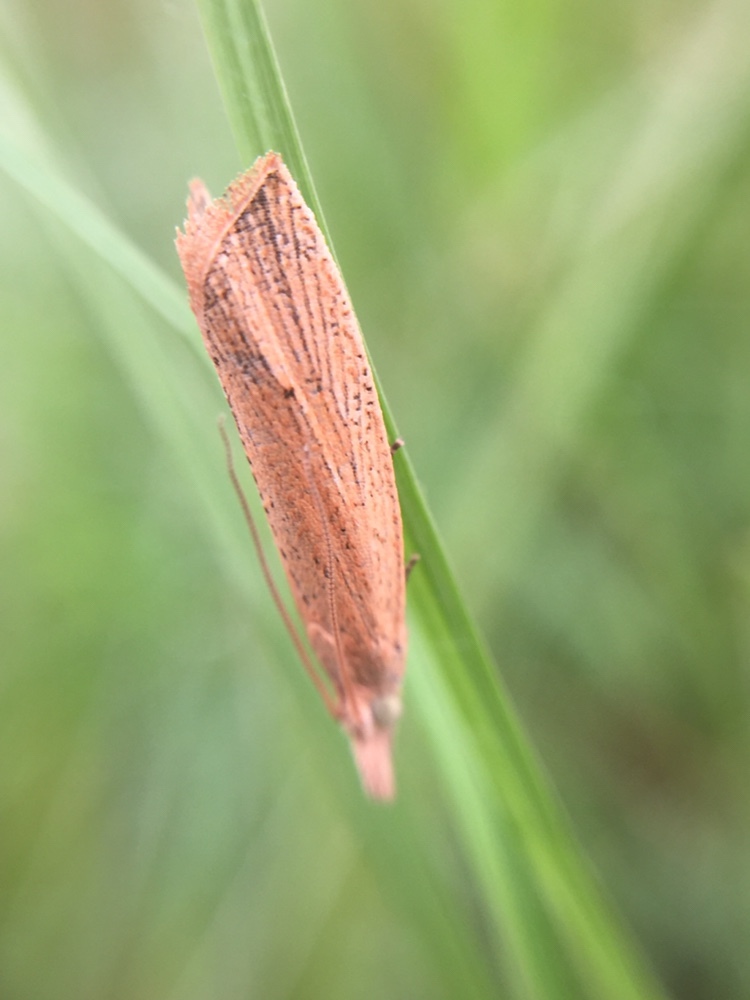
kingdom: Animalia
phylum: Arthropoda
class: Insecta
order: Lepidoptera
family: Tortricidae
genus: Bactra
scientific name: Bactra noteraula
